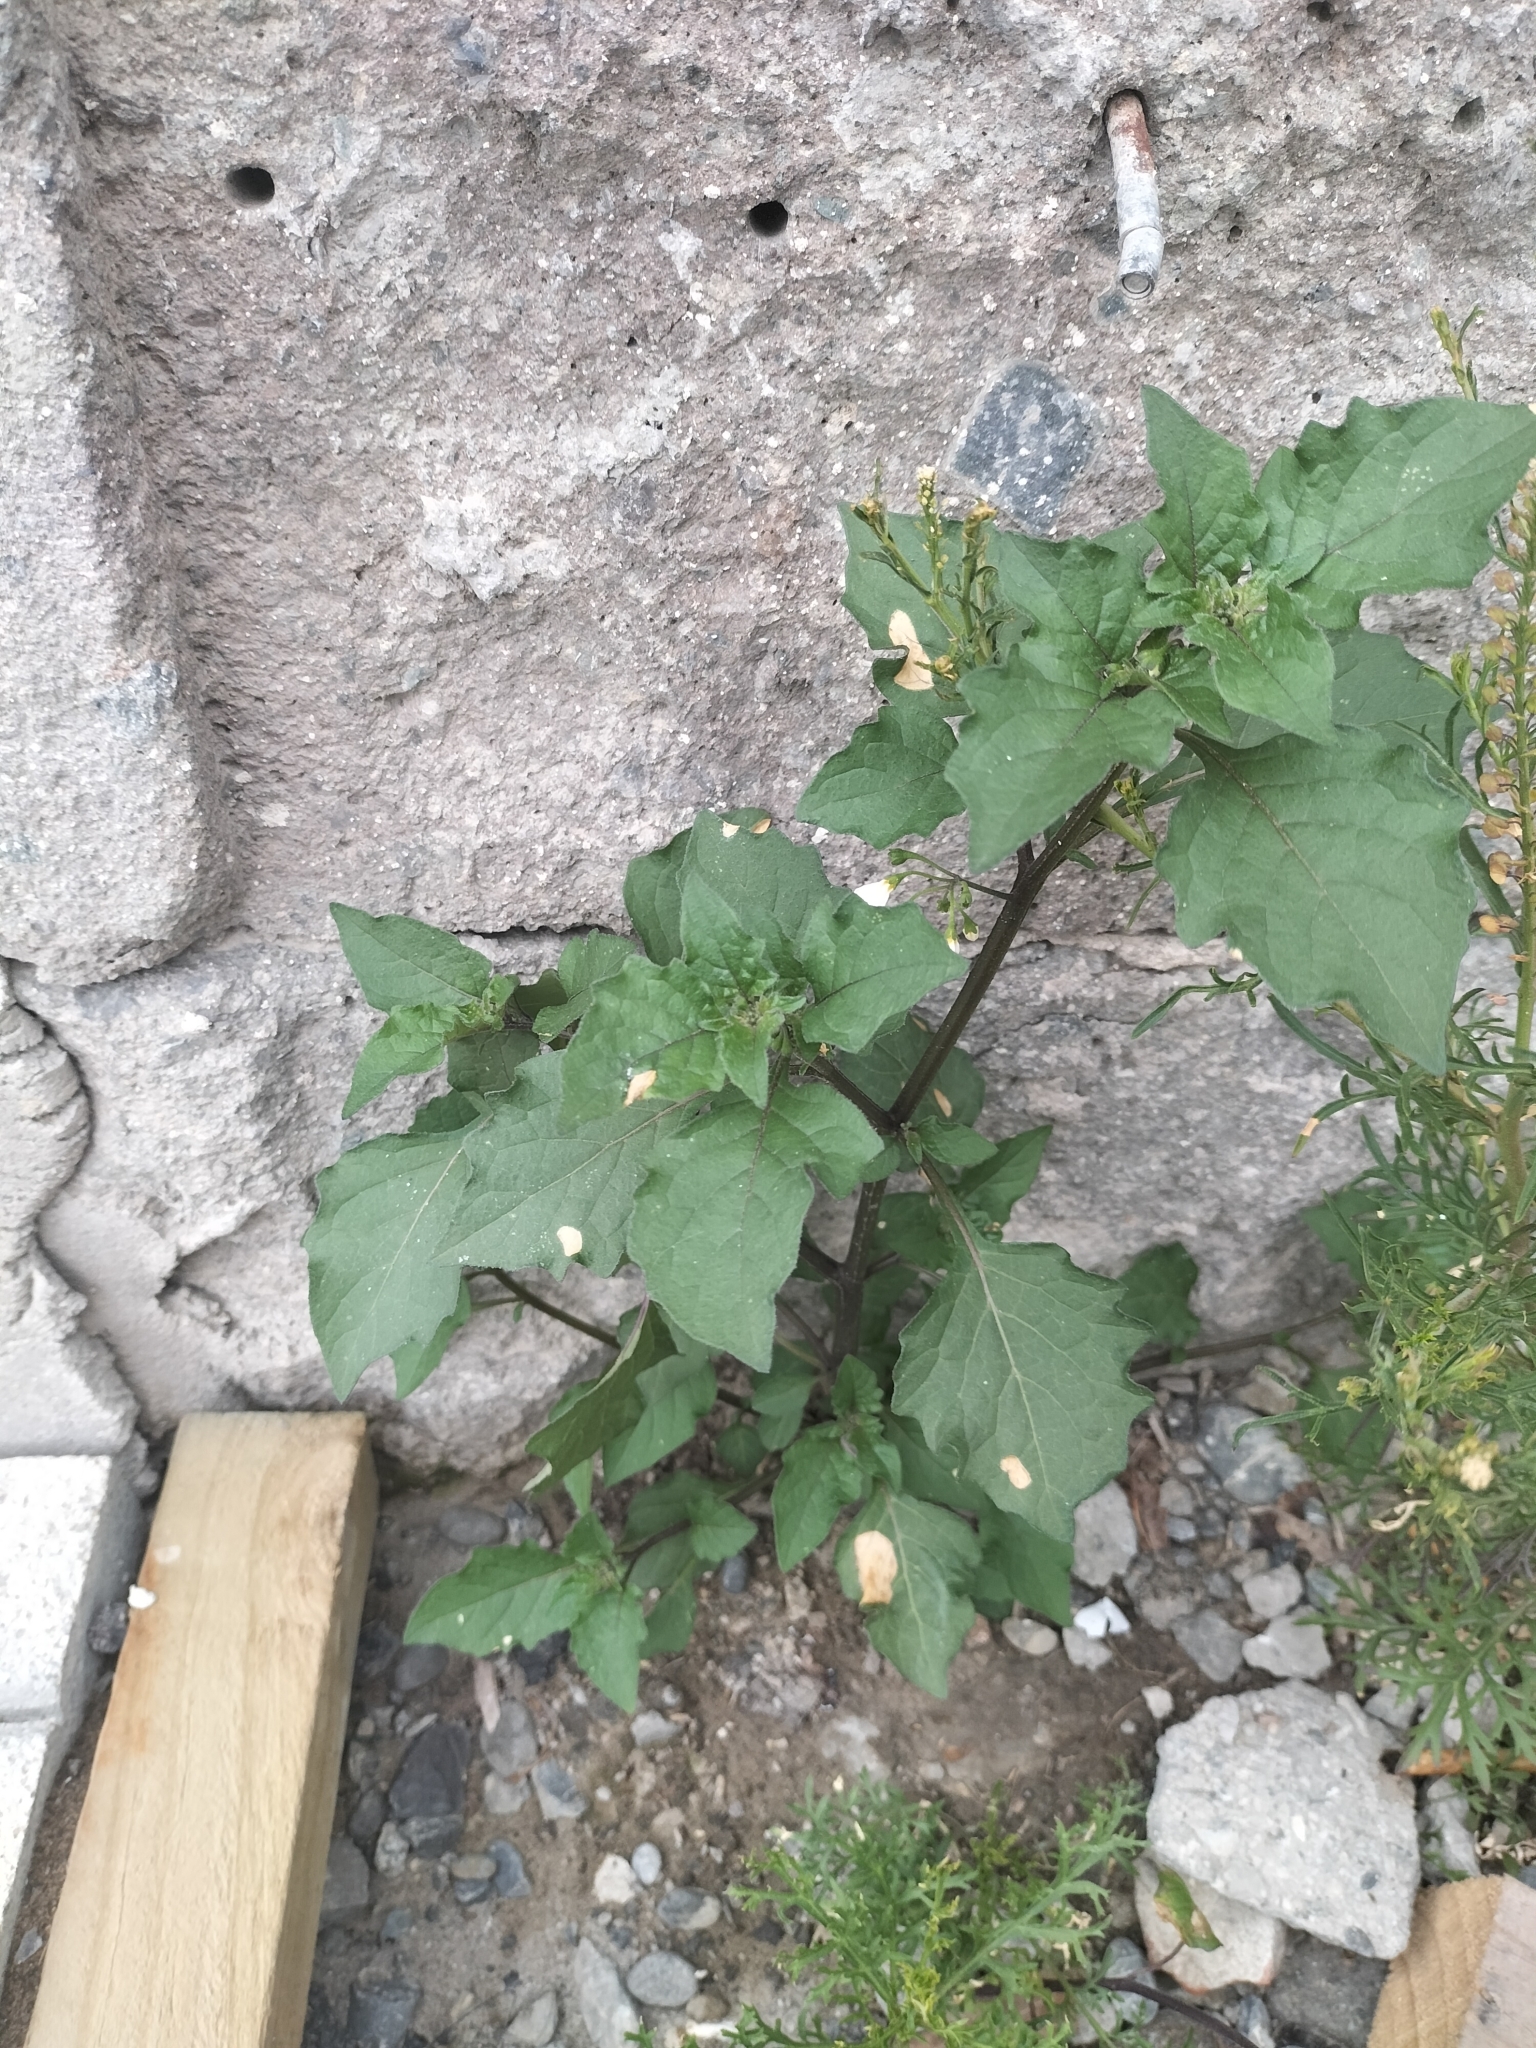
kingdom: Plantae
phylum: Tracheophyta
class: Magnoliopsida
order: Solanales
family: Solanaceae
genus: Solanum
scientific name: Solanum nigrum
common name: Black nightshade
